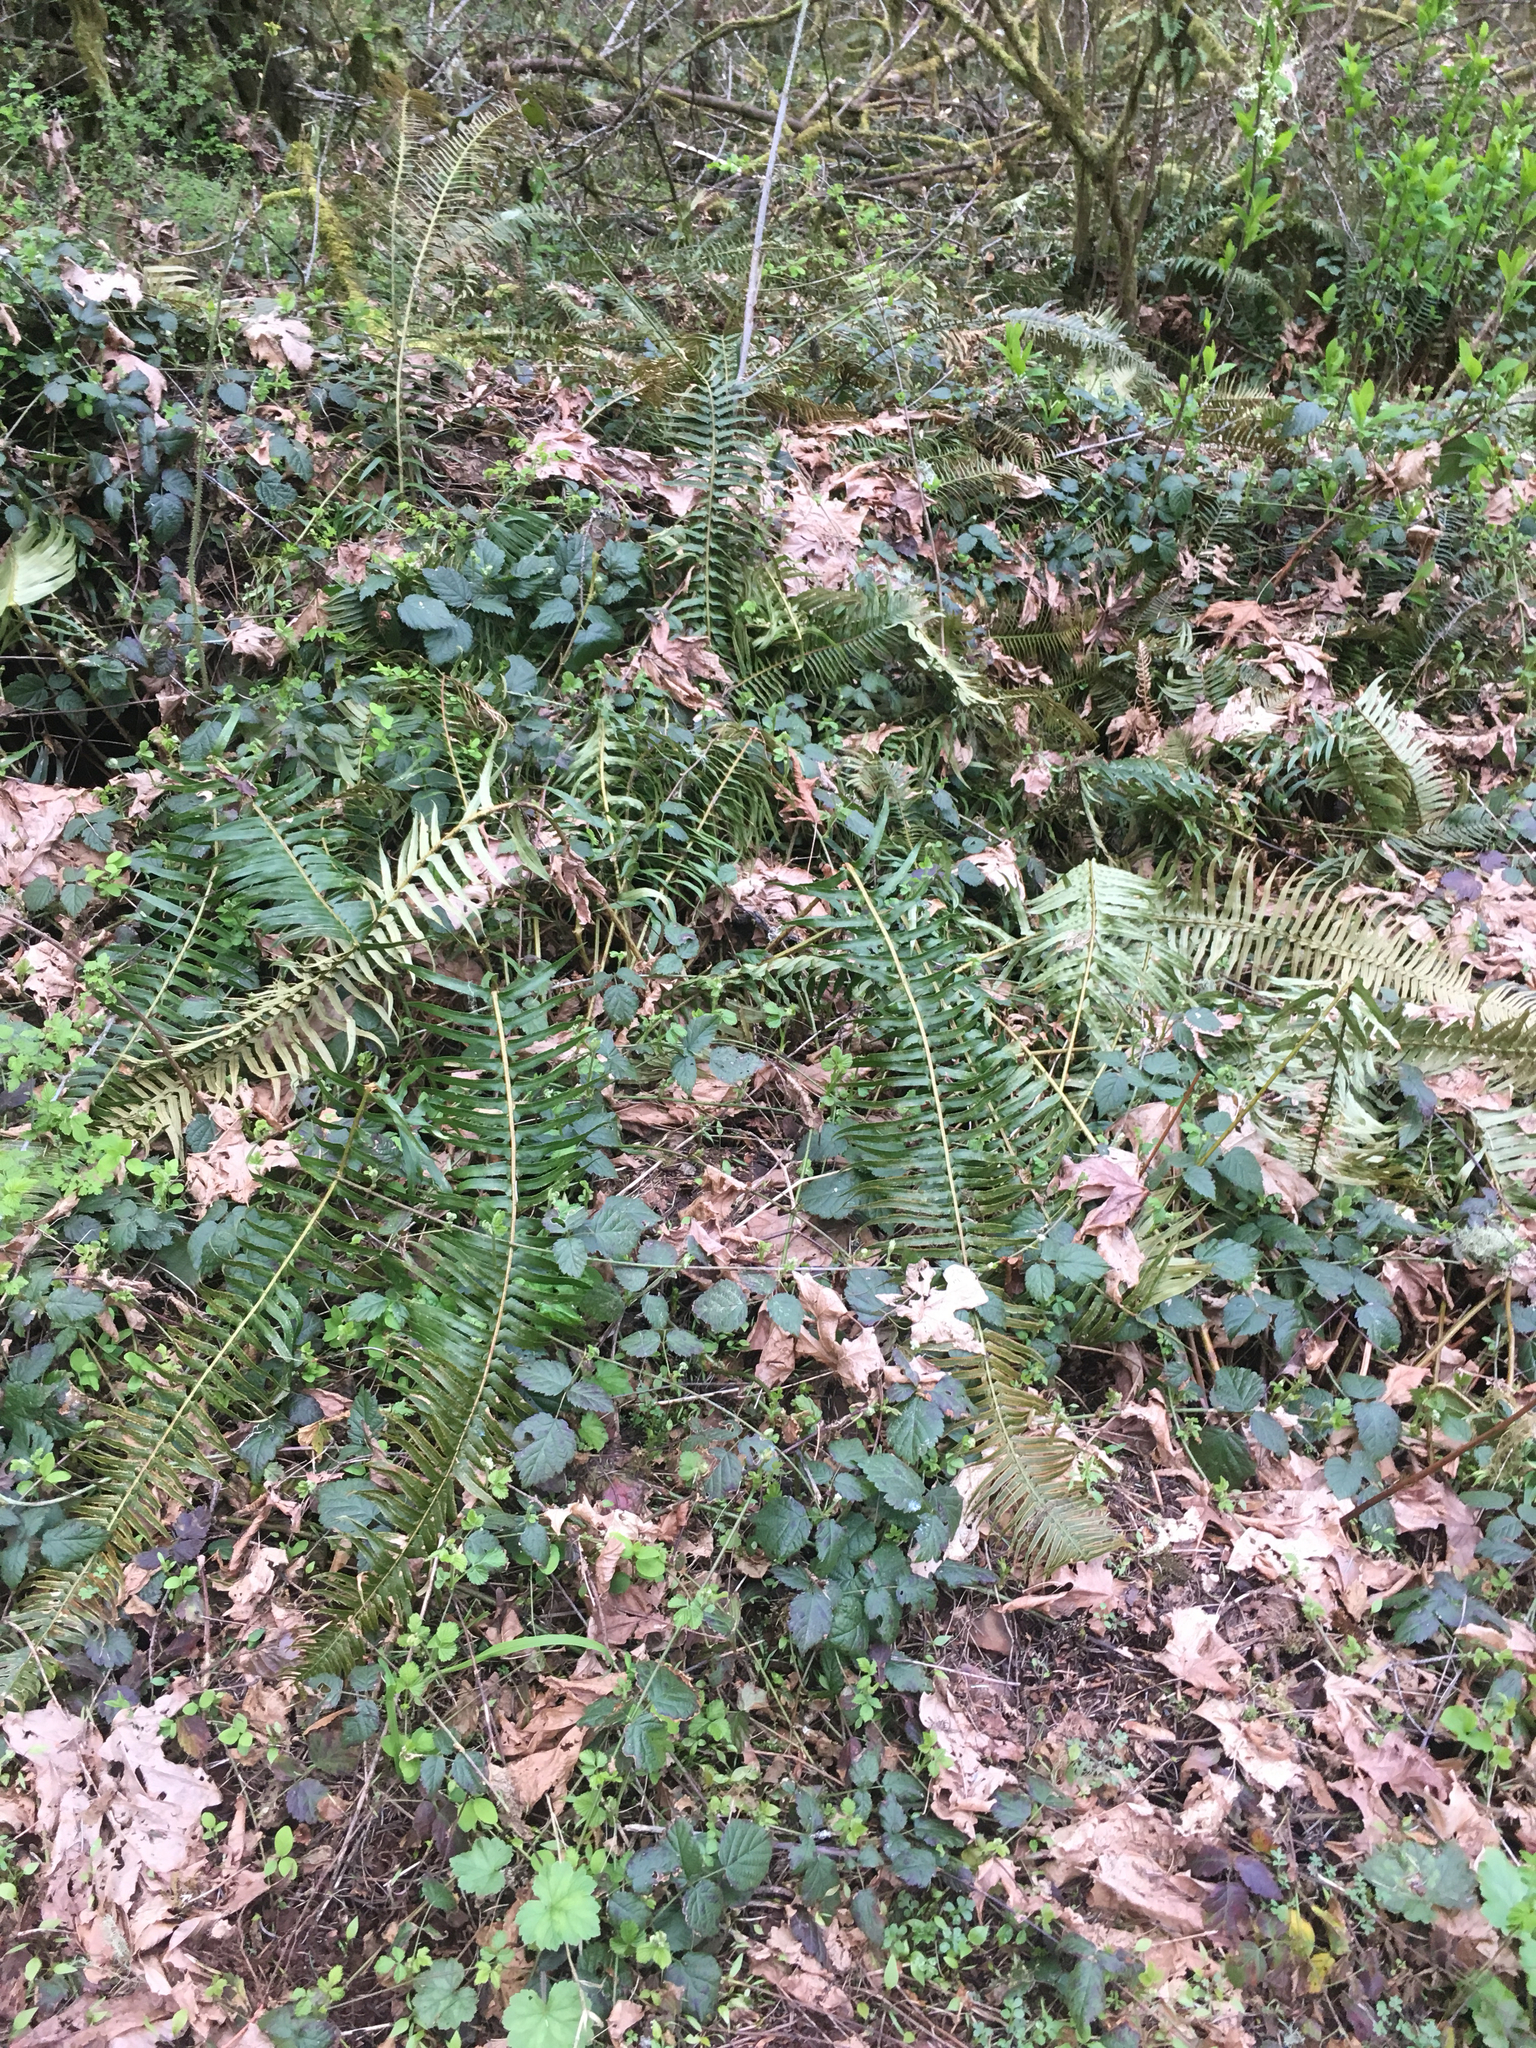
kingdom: Plantae
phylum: Tracheophyta
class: Magnoliopsida
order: Rosales
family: Rosaceae
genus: Rubus
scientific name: Rubus armeniacus
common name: Himalayan blackberry
